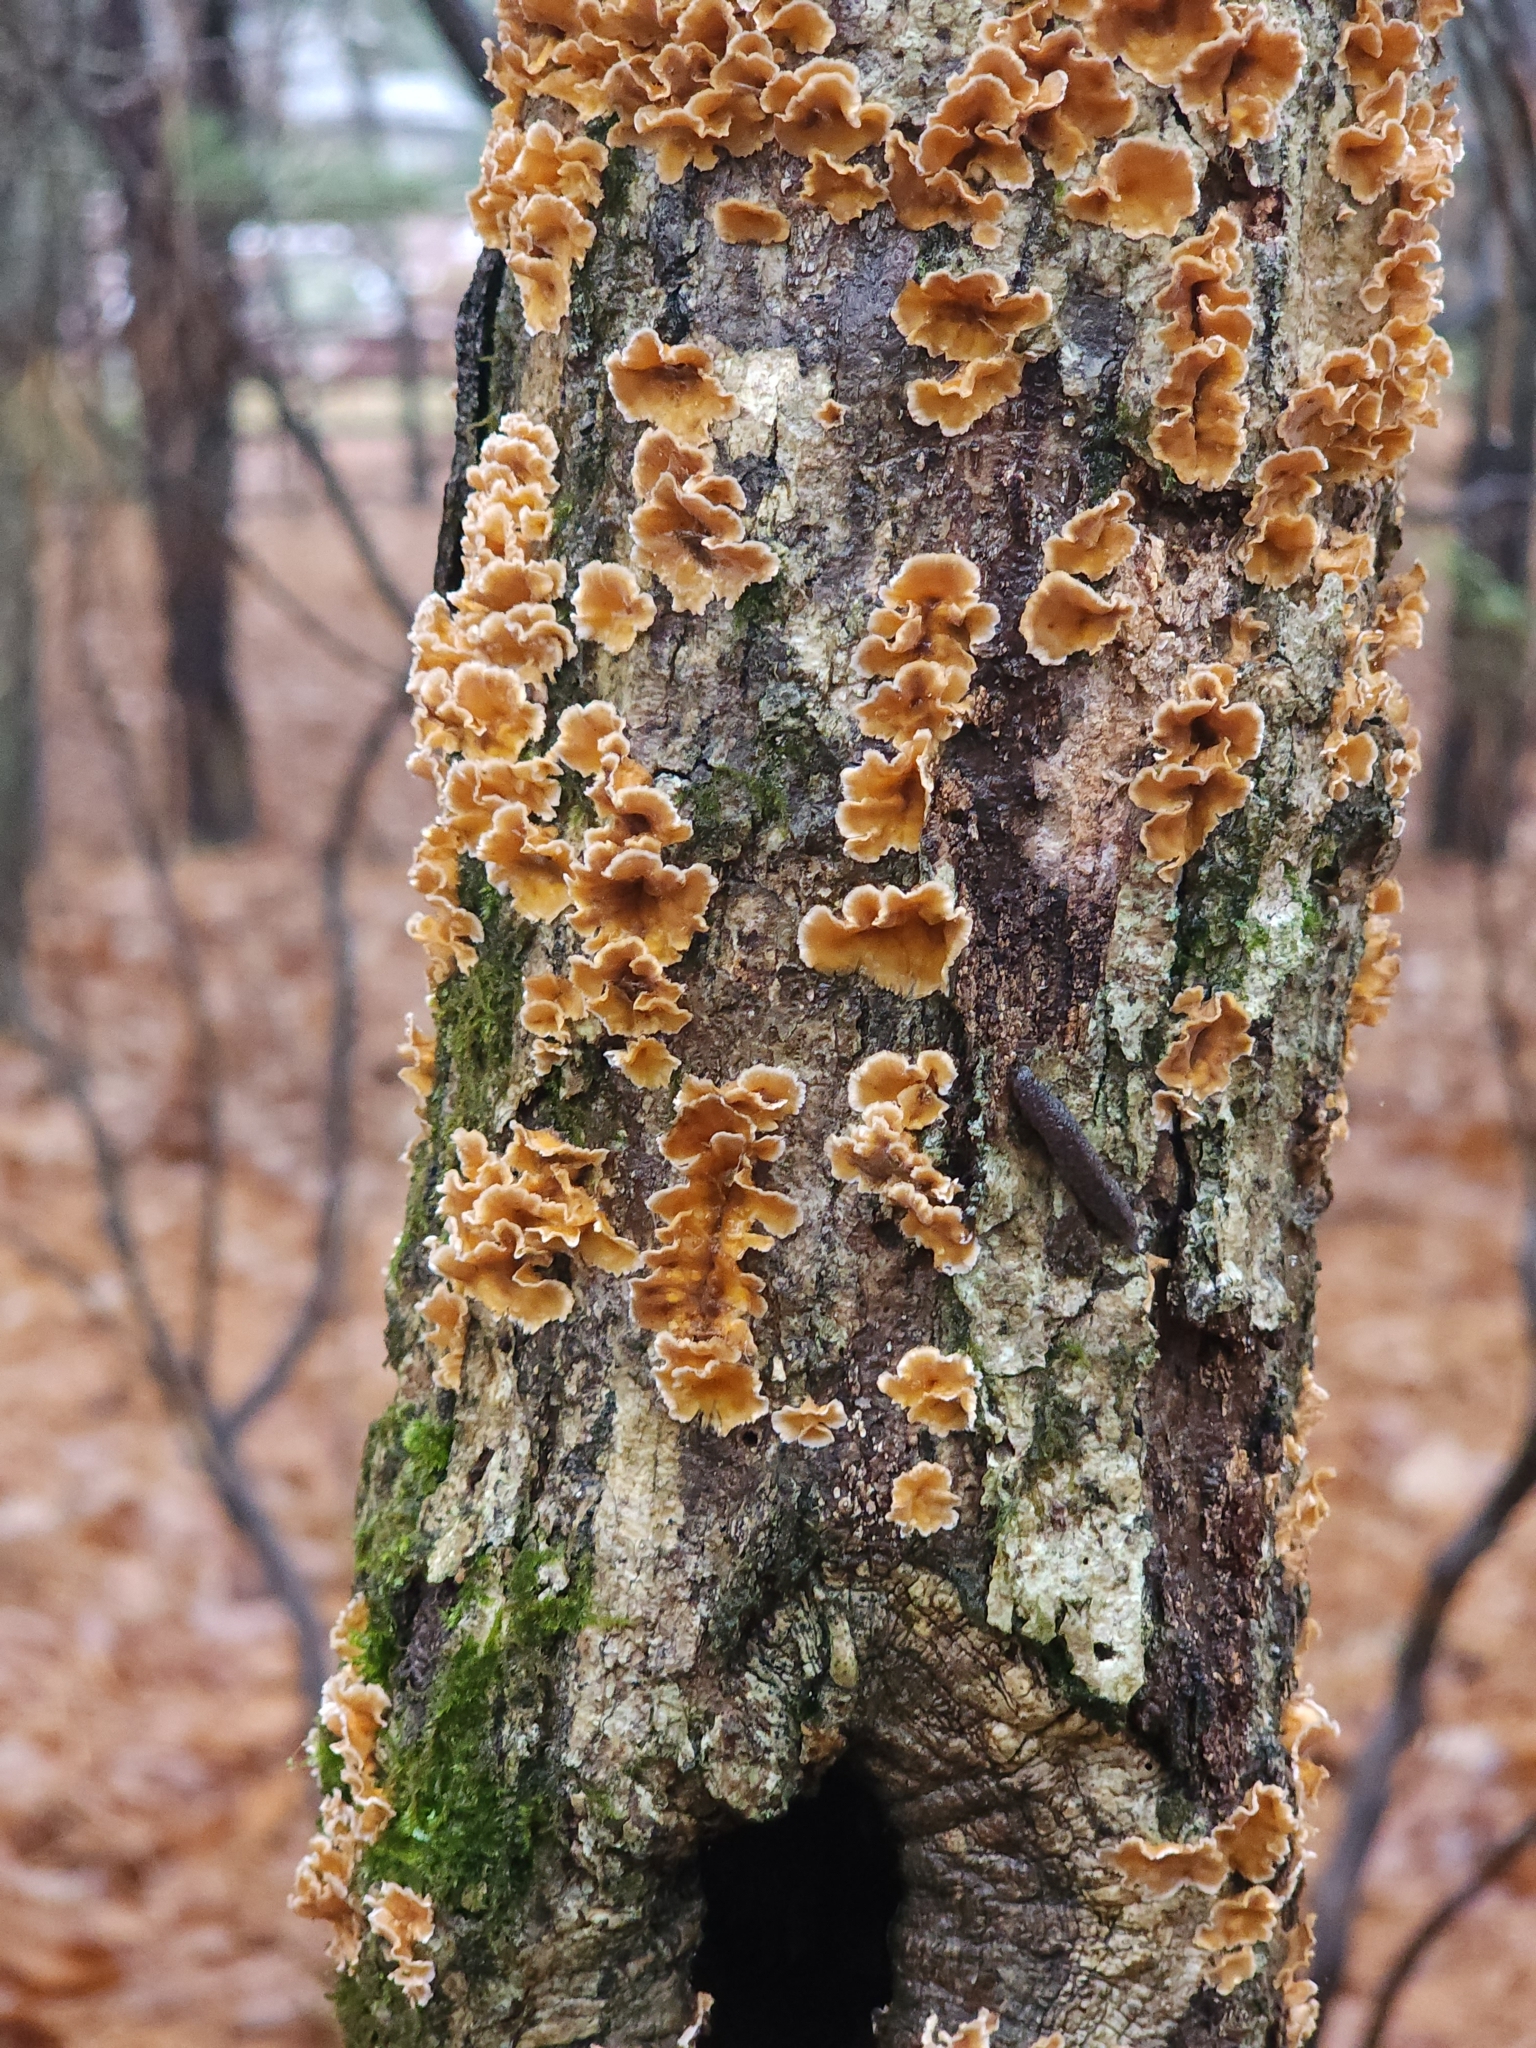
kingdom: Fungi
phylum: Basidiomycota
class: Agaricomycetes
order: Russulales
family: Stereaceae
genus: Stereum
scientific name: Stereum complicatum
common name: Crowded parchment
